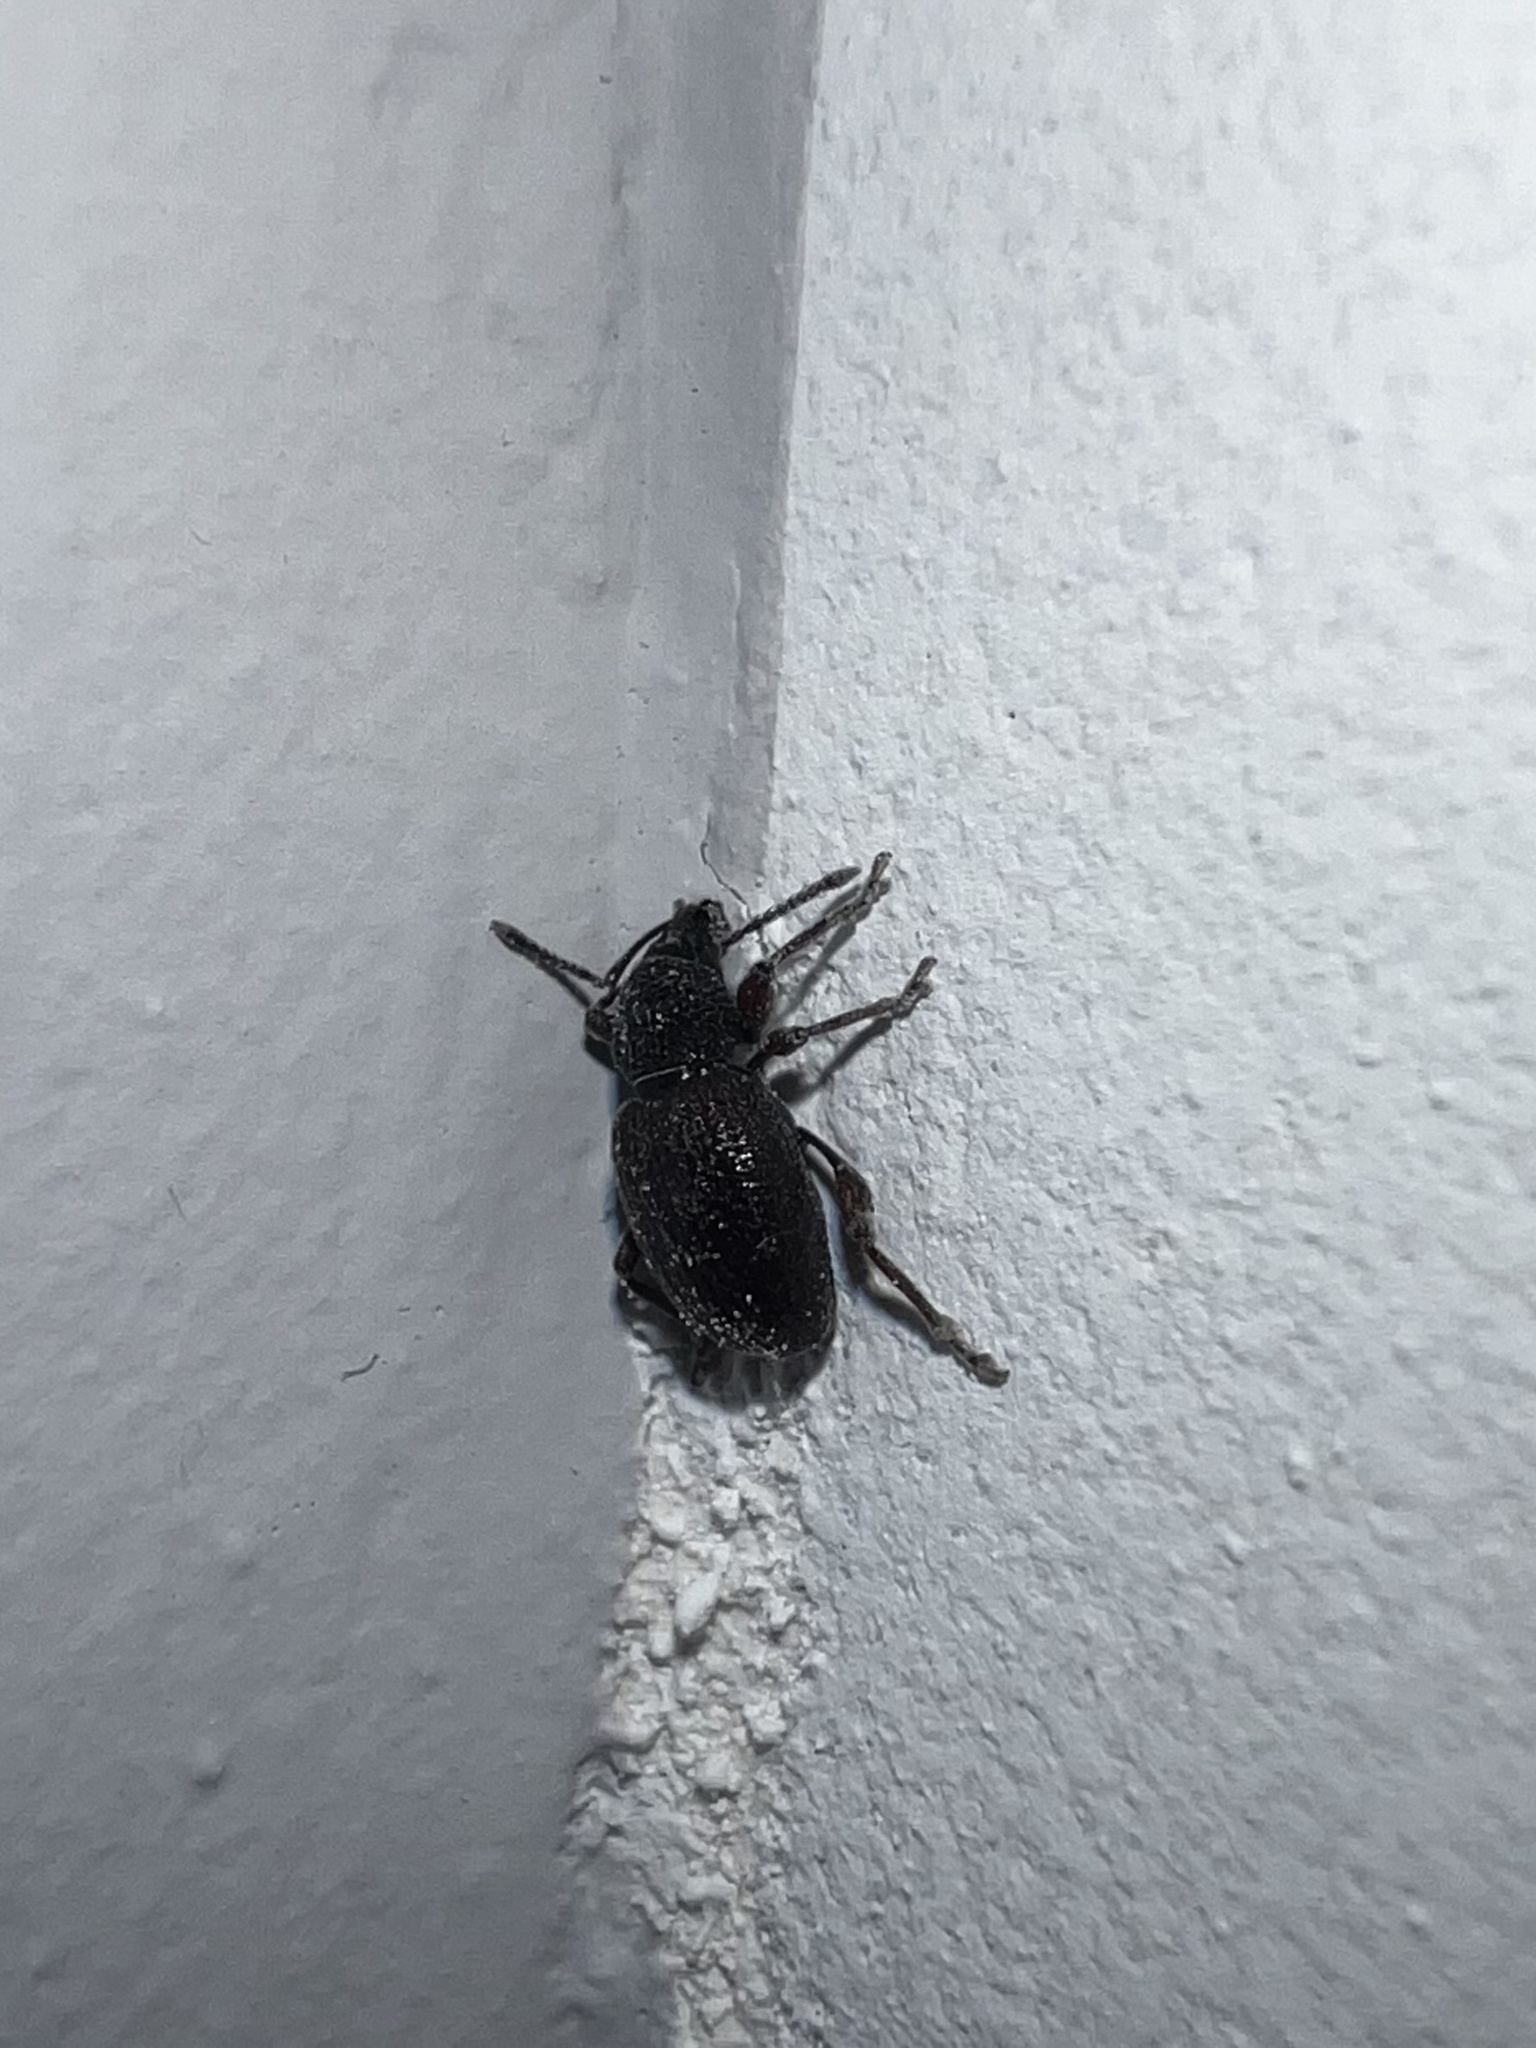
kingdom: Animalia
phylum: Arthropoda
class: Insecta
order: Coleoptera
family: Curculionidae
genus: Otiorhynchus
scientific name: Otiorhynchus ovatus
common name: Strawberry root weevil
